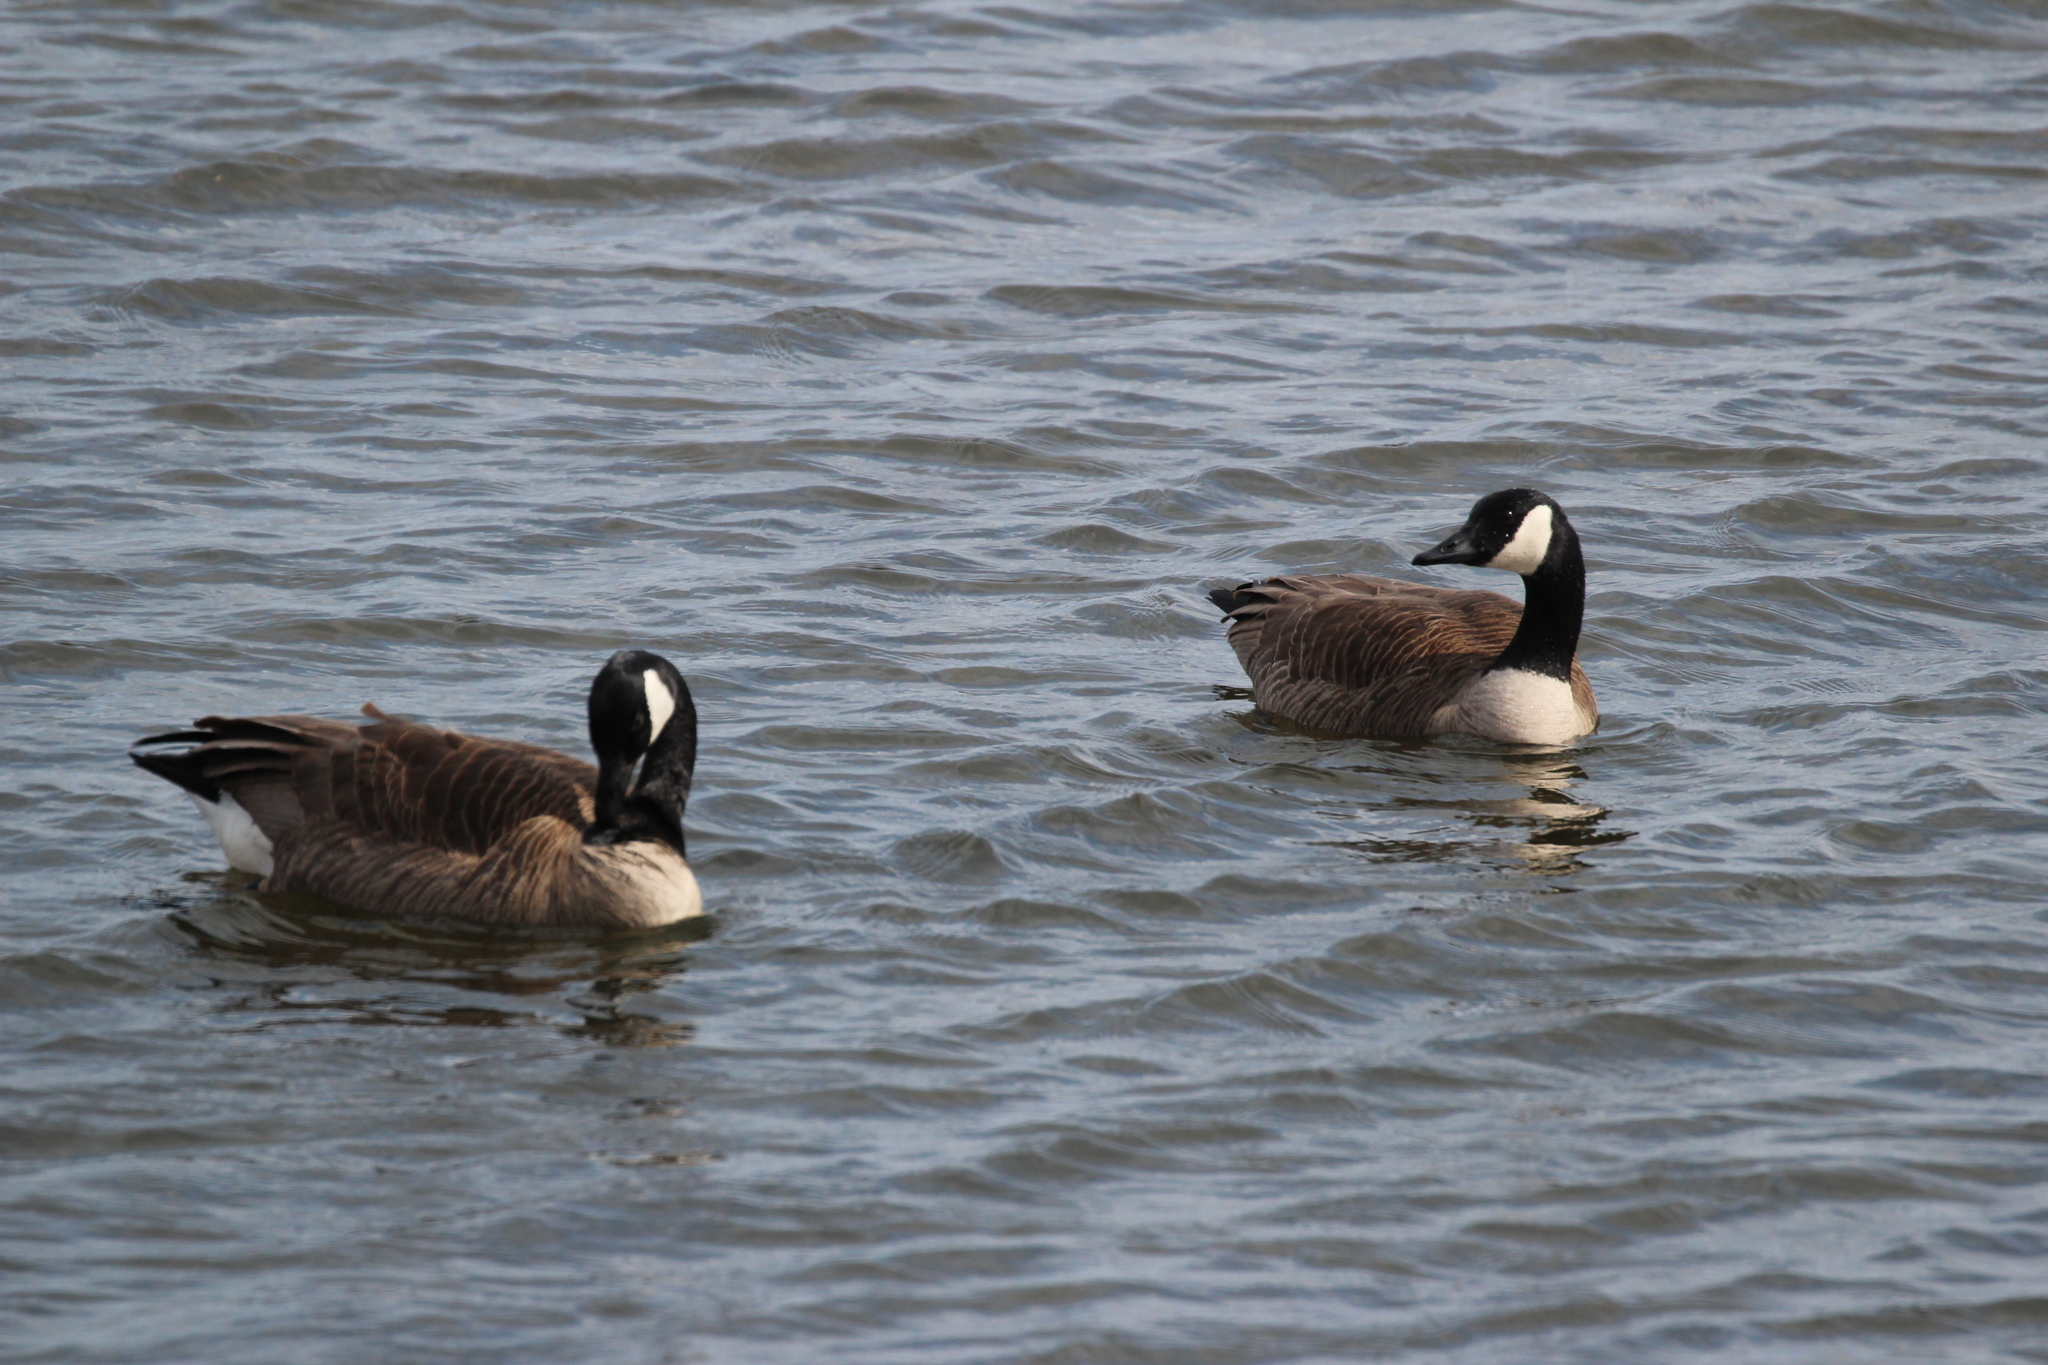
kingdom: Animalia
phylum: Chordata
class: Aves
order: Anseriformes
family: Anatidae
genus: Branta
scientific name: Branta canadensis
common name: Canada goose
